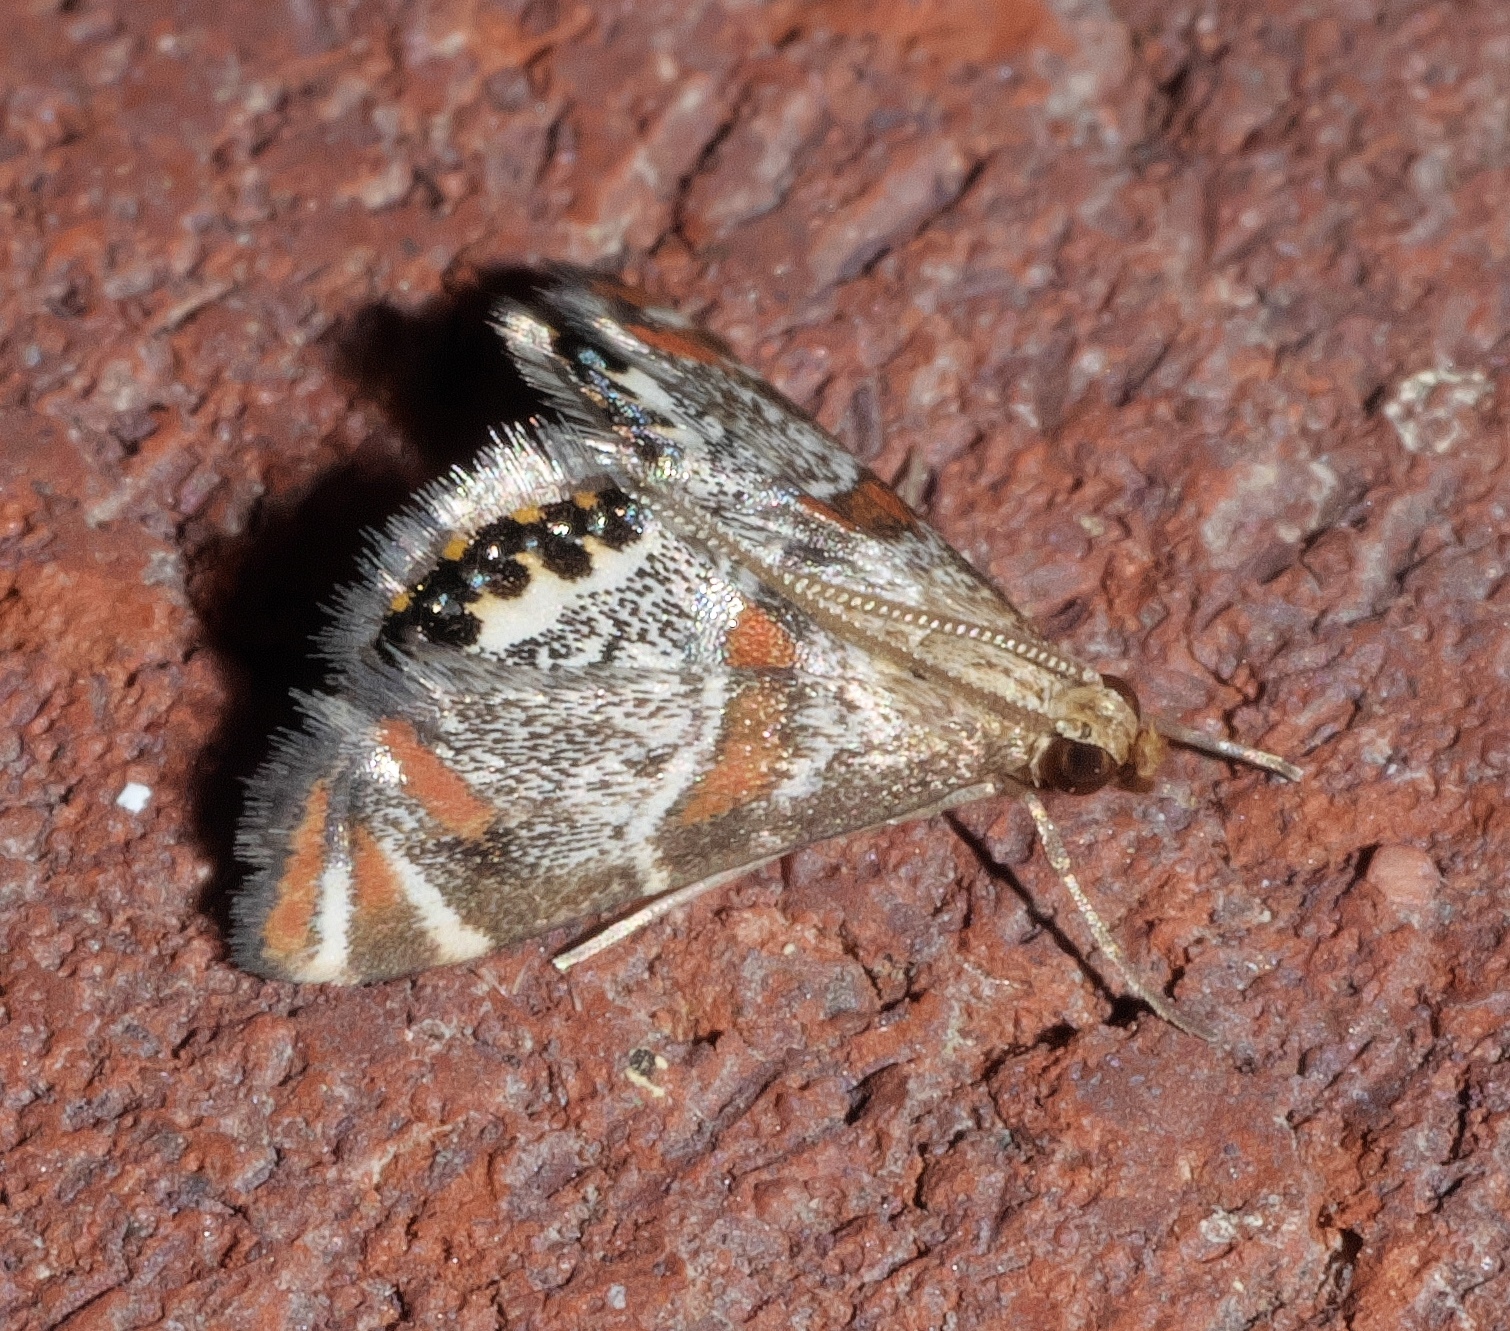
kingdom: Animalia
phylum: Arthropoda
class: Insecta
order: Lepidoptera
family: Crambidae
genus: Petrophila
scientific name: Petrophila jaliscalis
